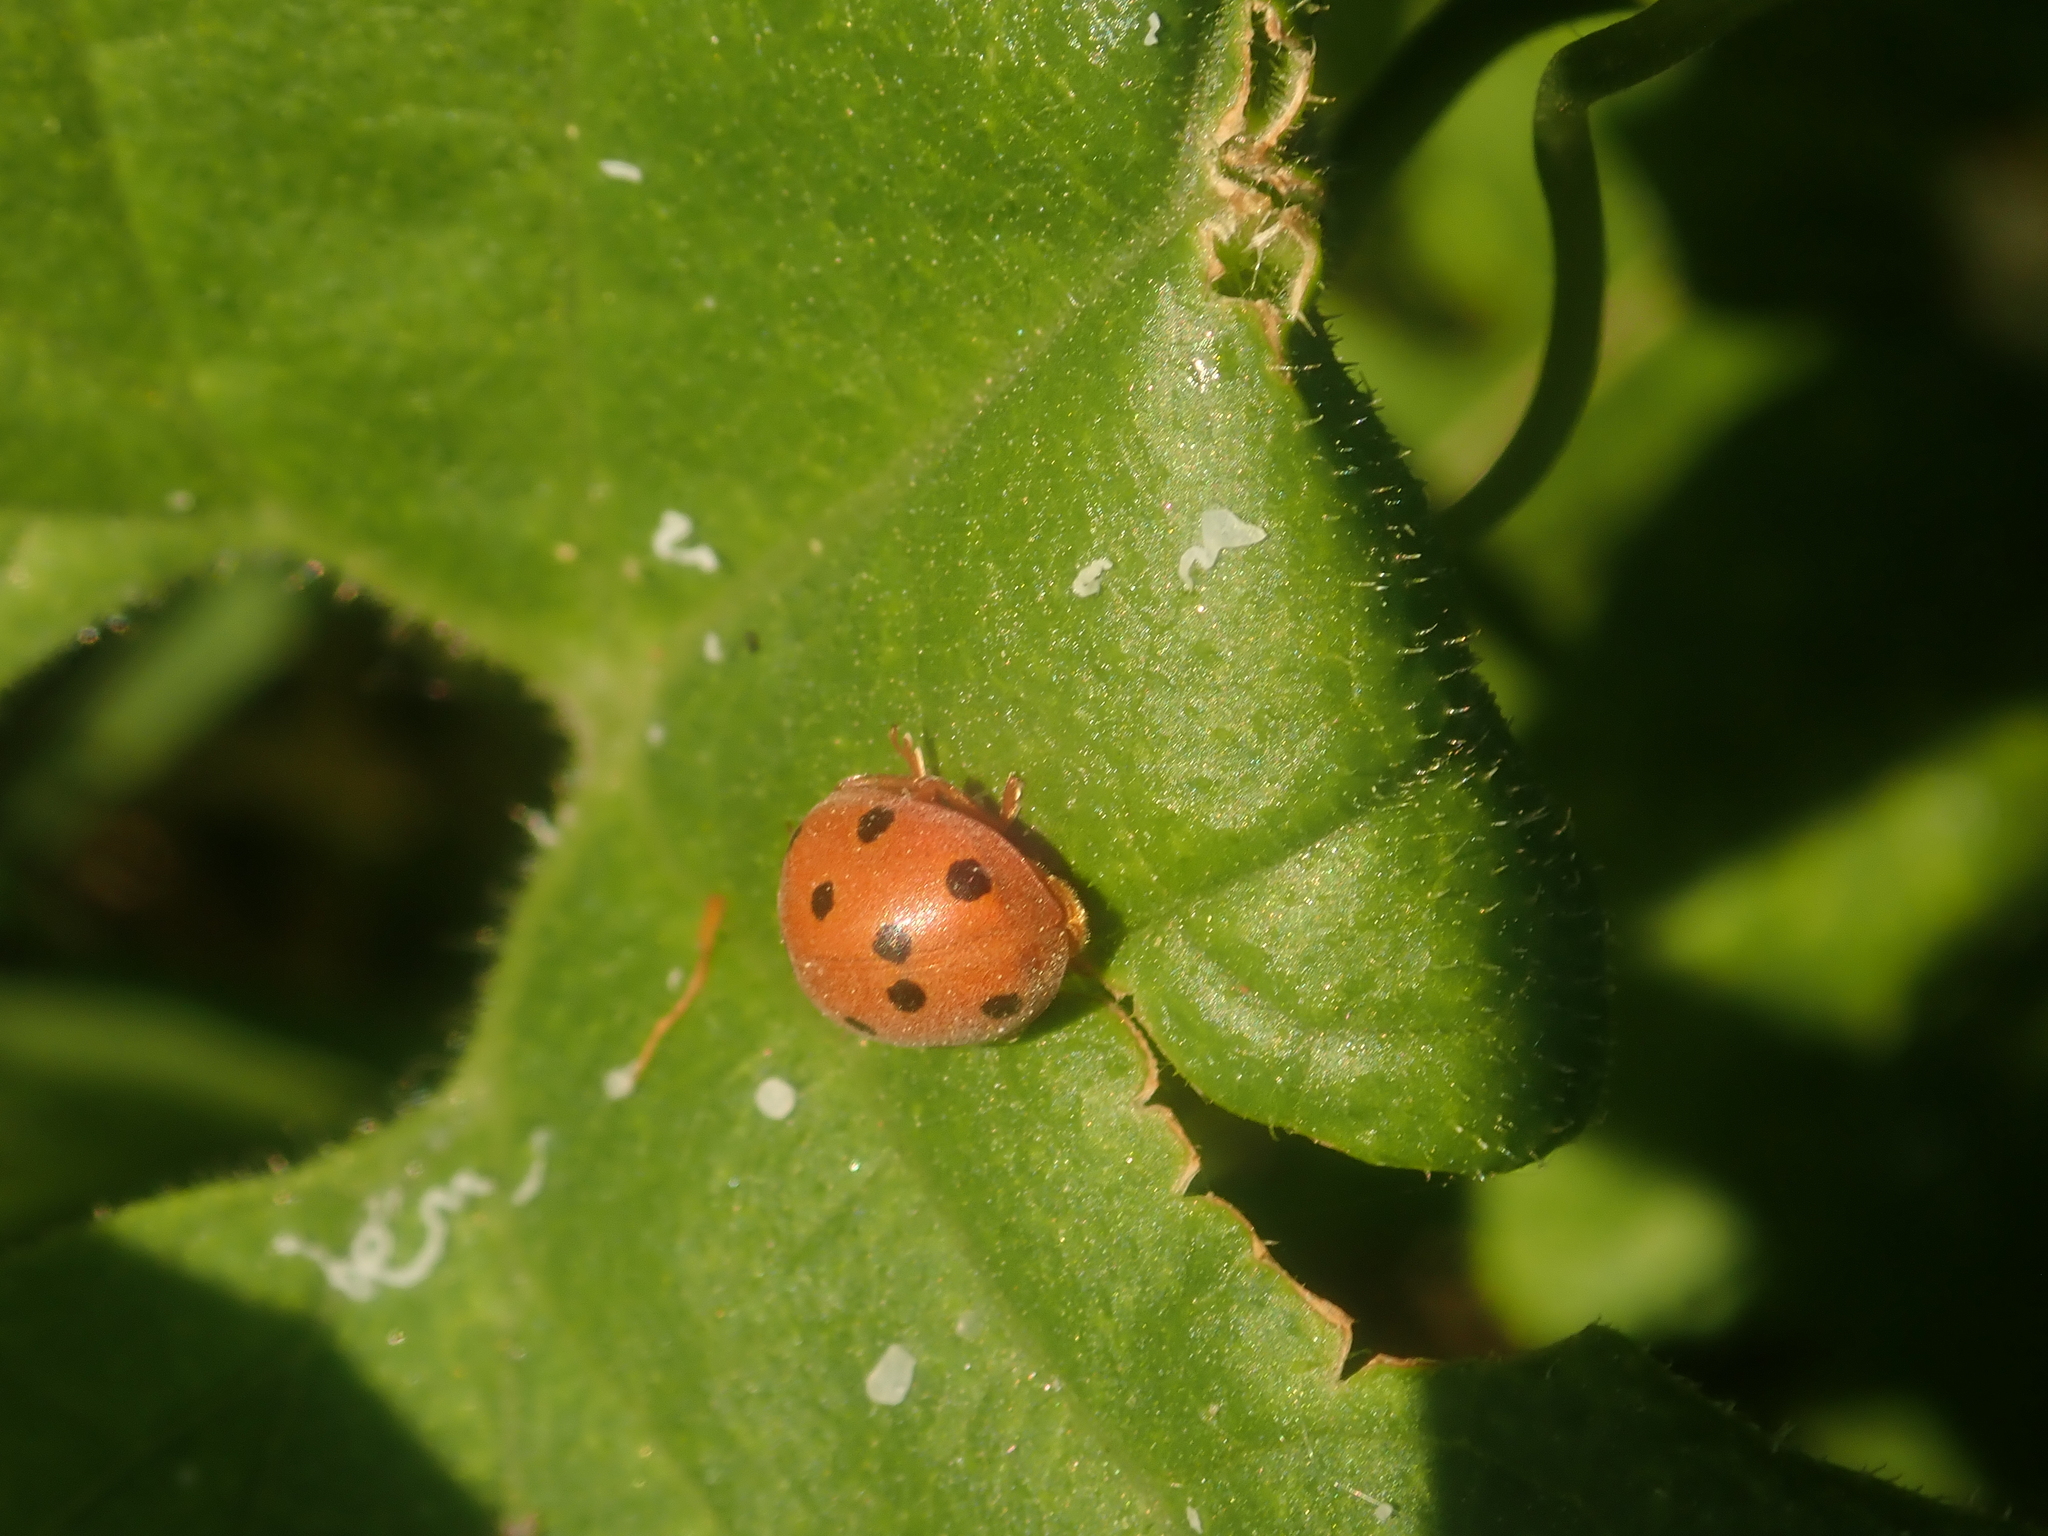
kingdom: Animalia
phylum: Arthropoda
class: Insecta
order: Coleoptera
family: Coccinellidae
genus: Henosepilachna
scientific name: Henosepilachna argus
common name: Bryony ladybird
